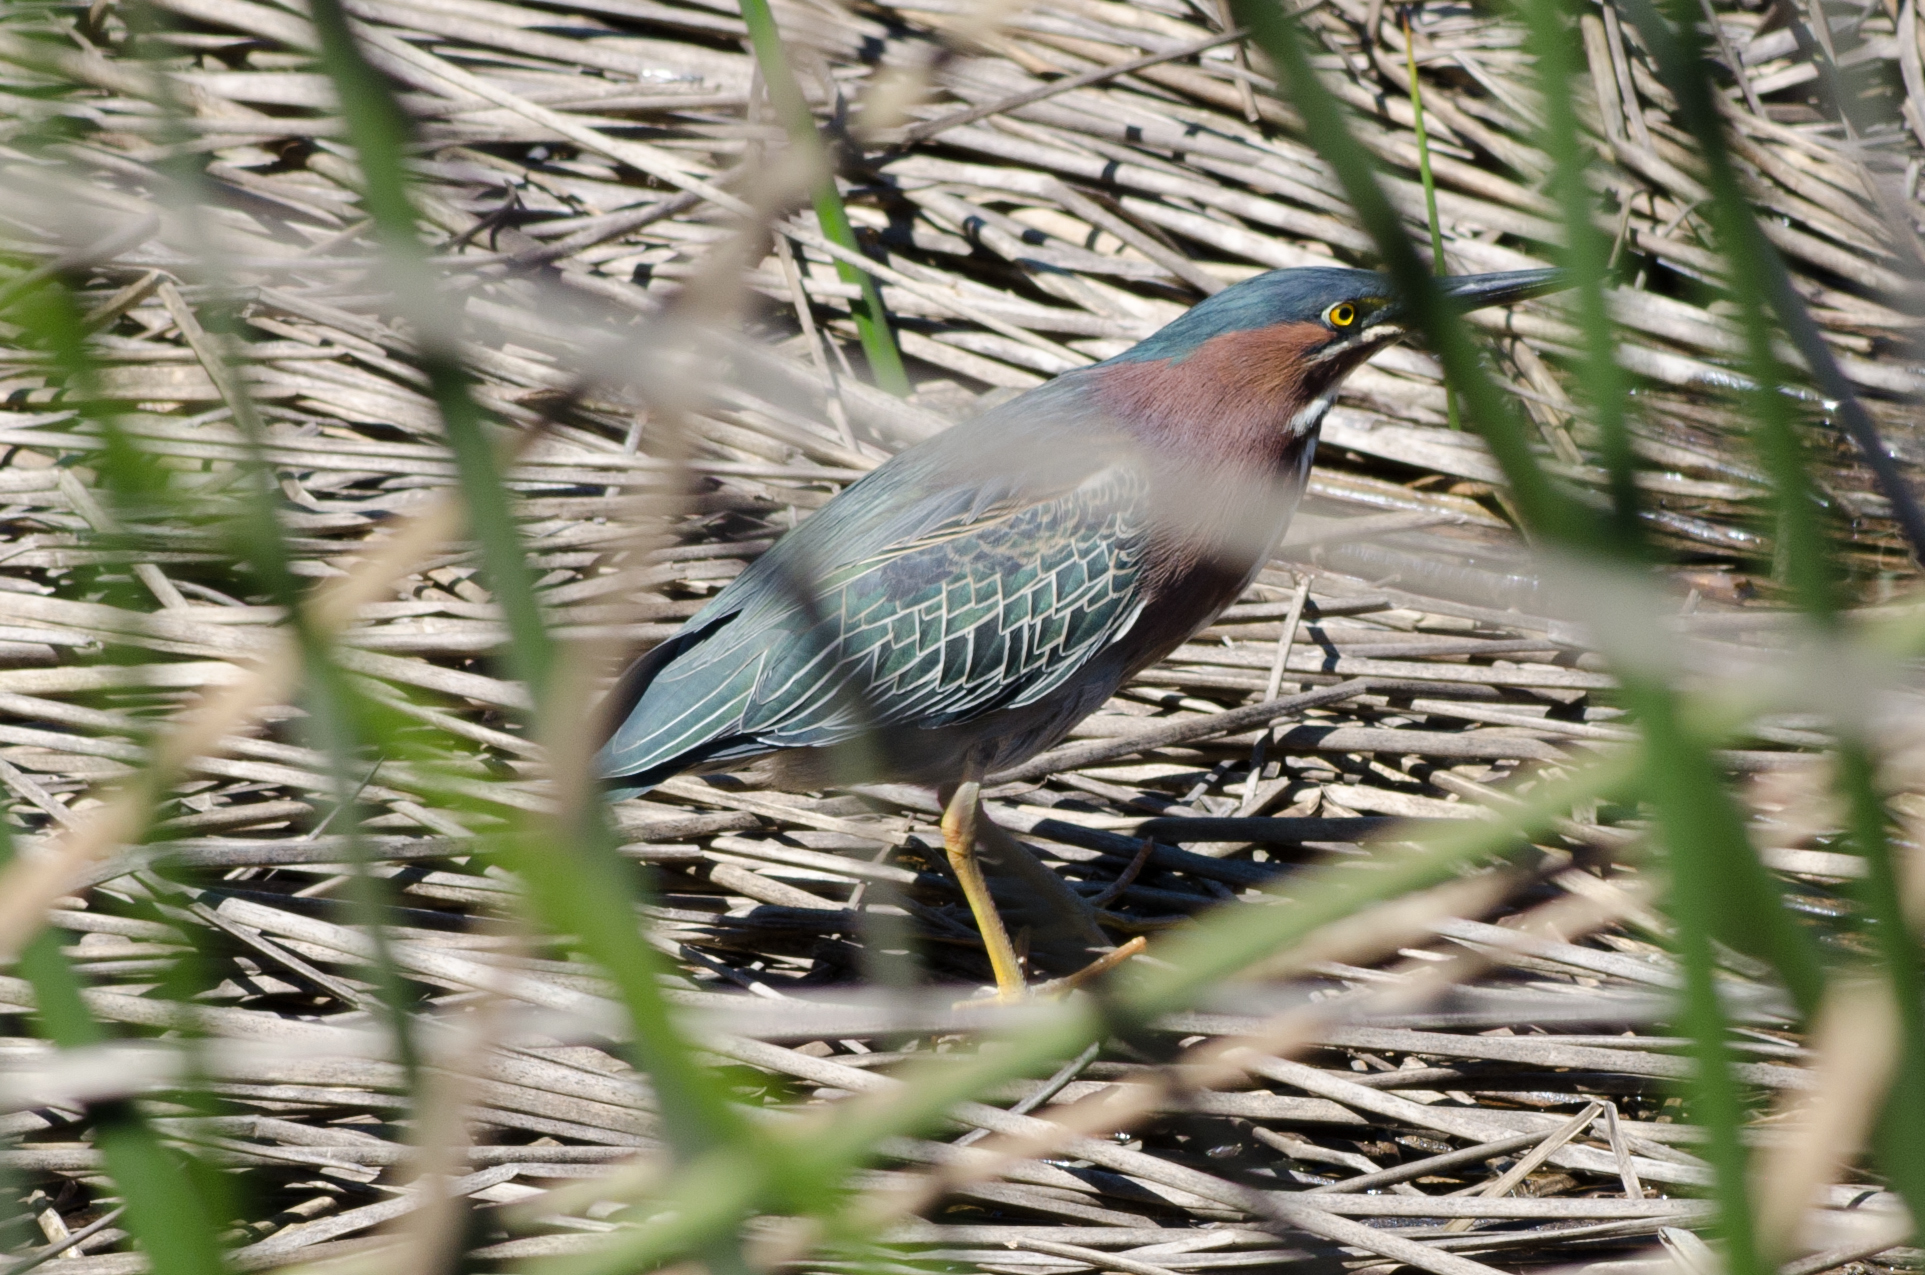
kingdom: Animalia
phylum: Chordata
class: Aves
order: Pelecaniformes
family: Ardeidae
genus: Butorides
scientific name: Butorides virescens
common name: Green heron
